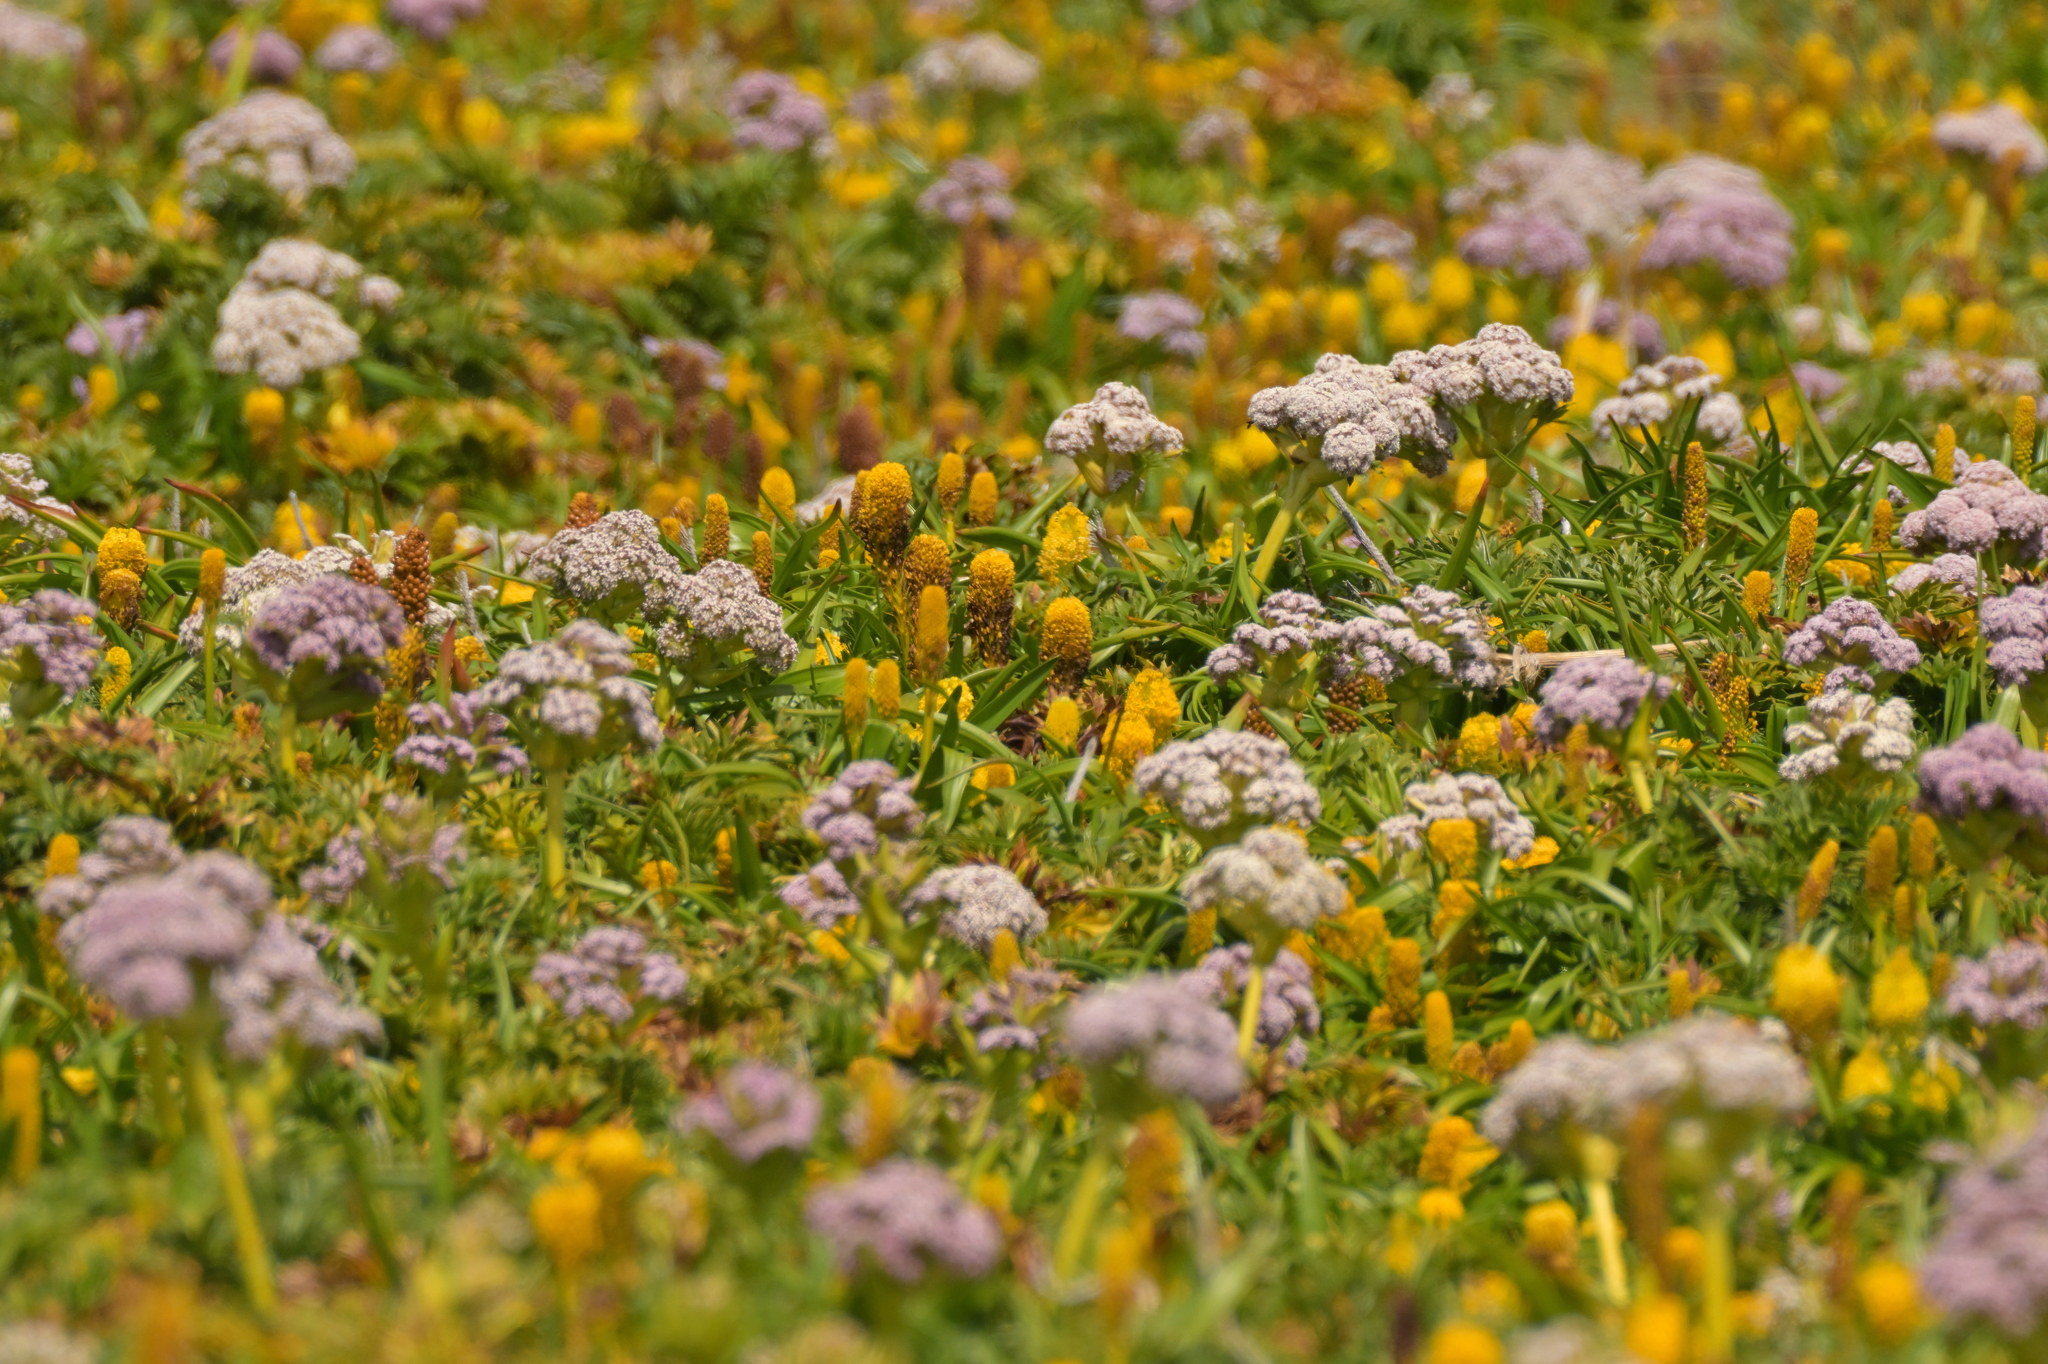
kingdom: Plantae
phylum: Tracheophyta
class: Magnoliopsida
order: Apiales
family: Apiaceae
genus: Anisotome
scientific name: Anisotome latifolia
